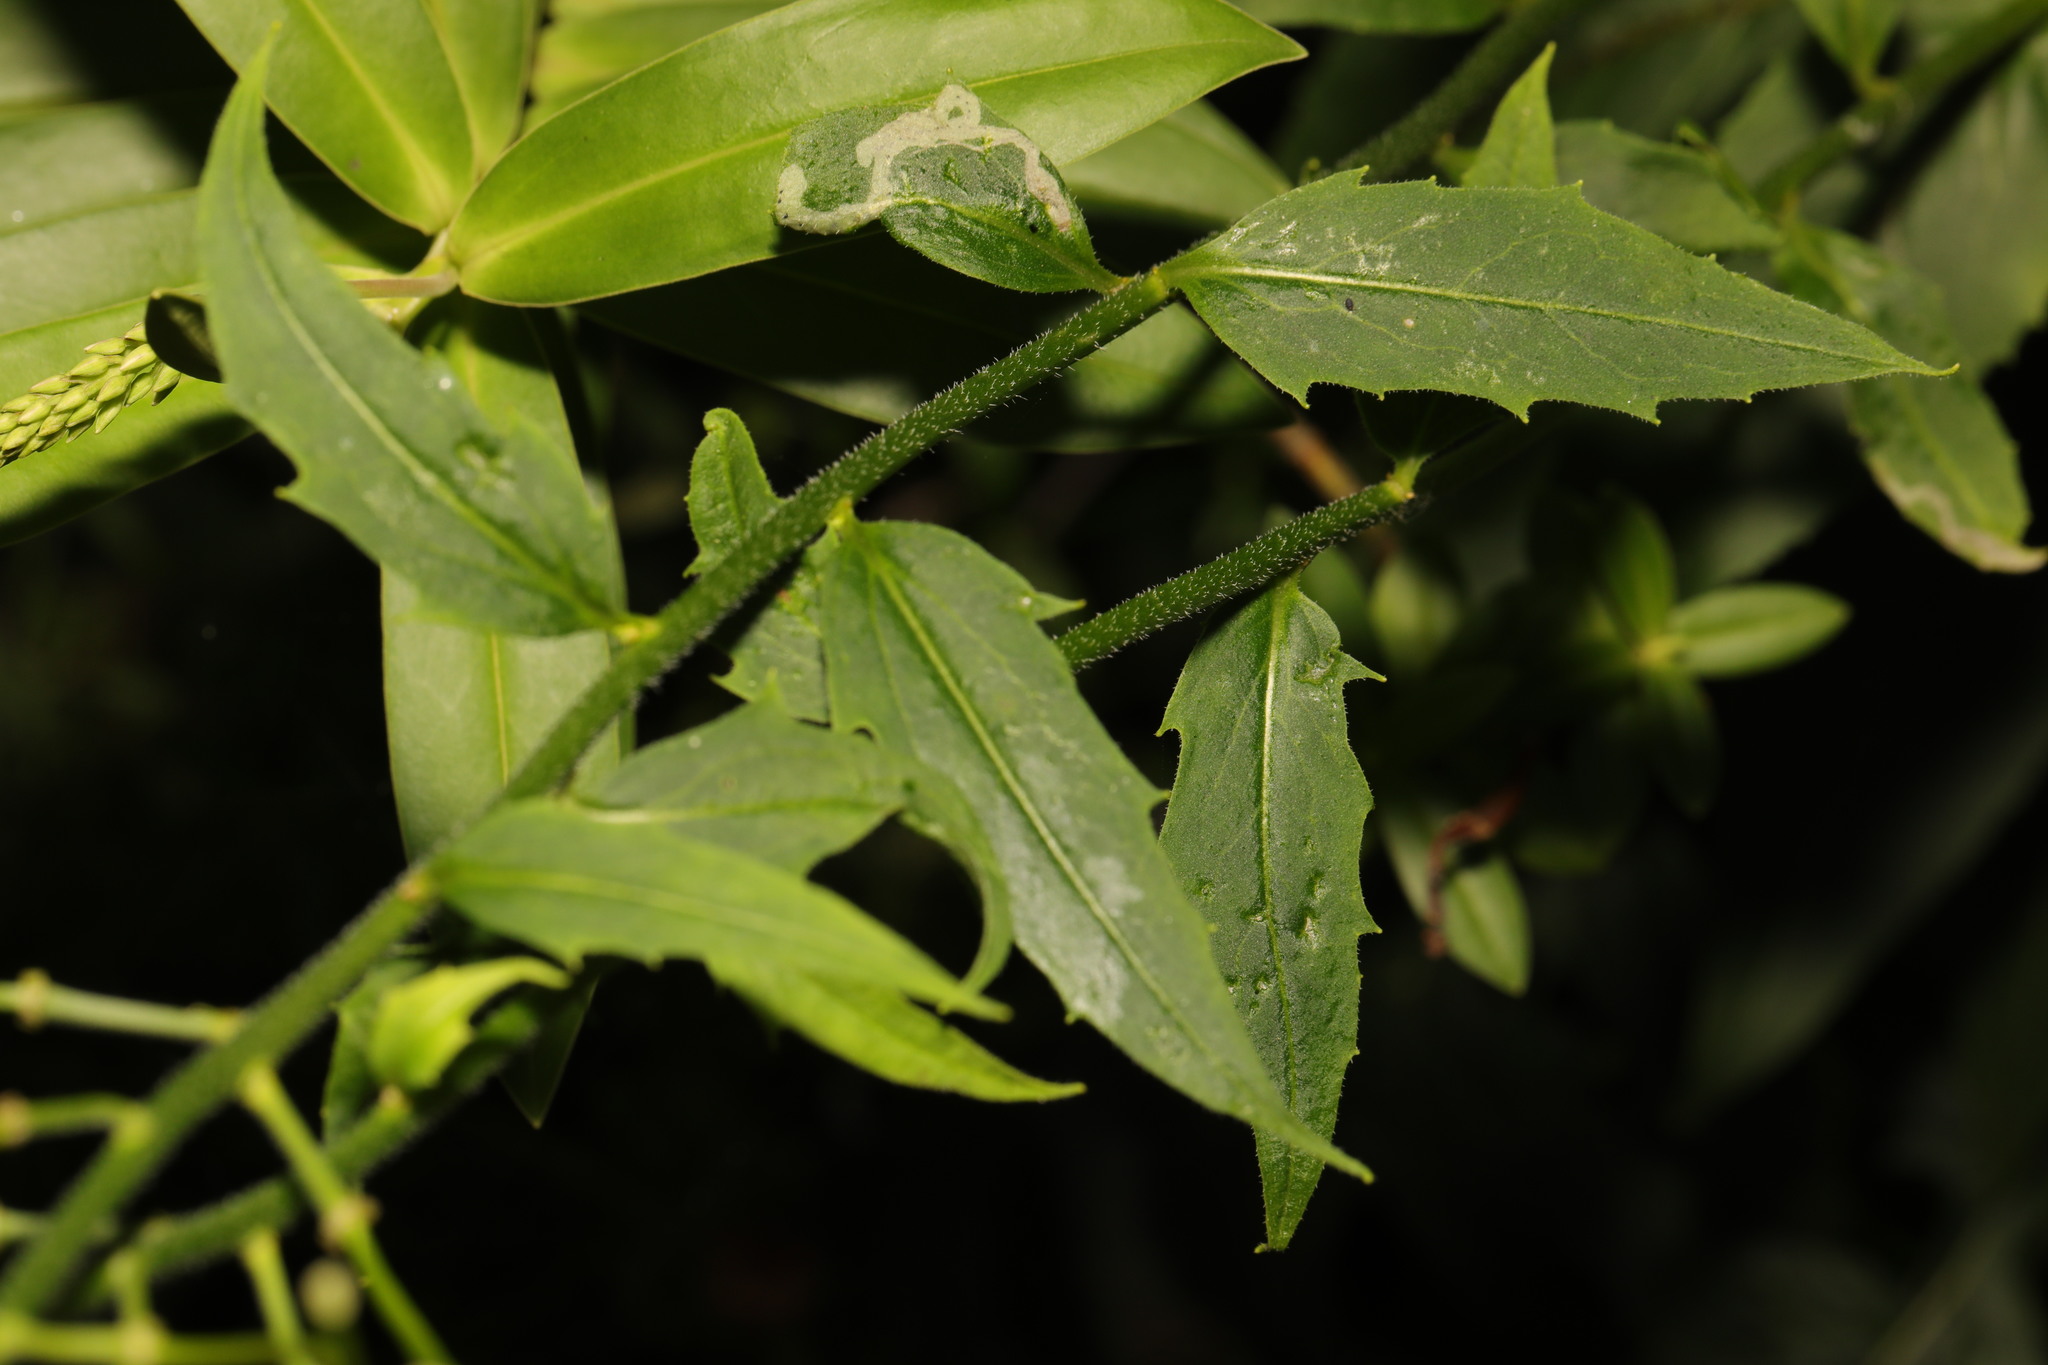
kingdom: Plantae
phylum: Tracheophyta
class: Magnoliopsida
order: Brassicales
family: Brassicaceae
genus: Hesperis
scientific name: Hesperis matronalis
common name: Dame's-violet
